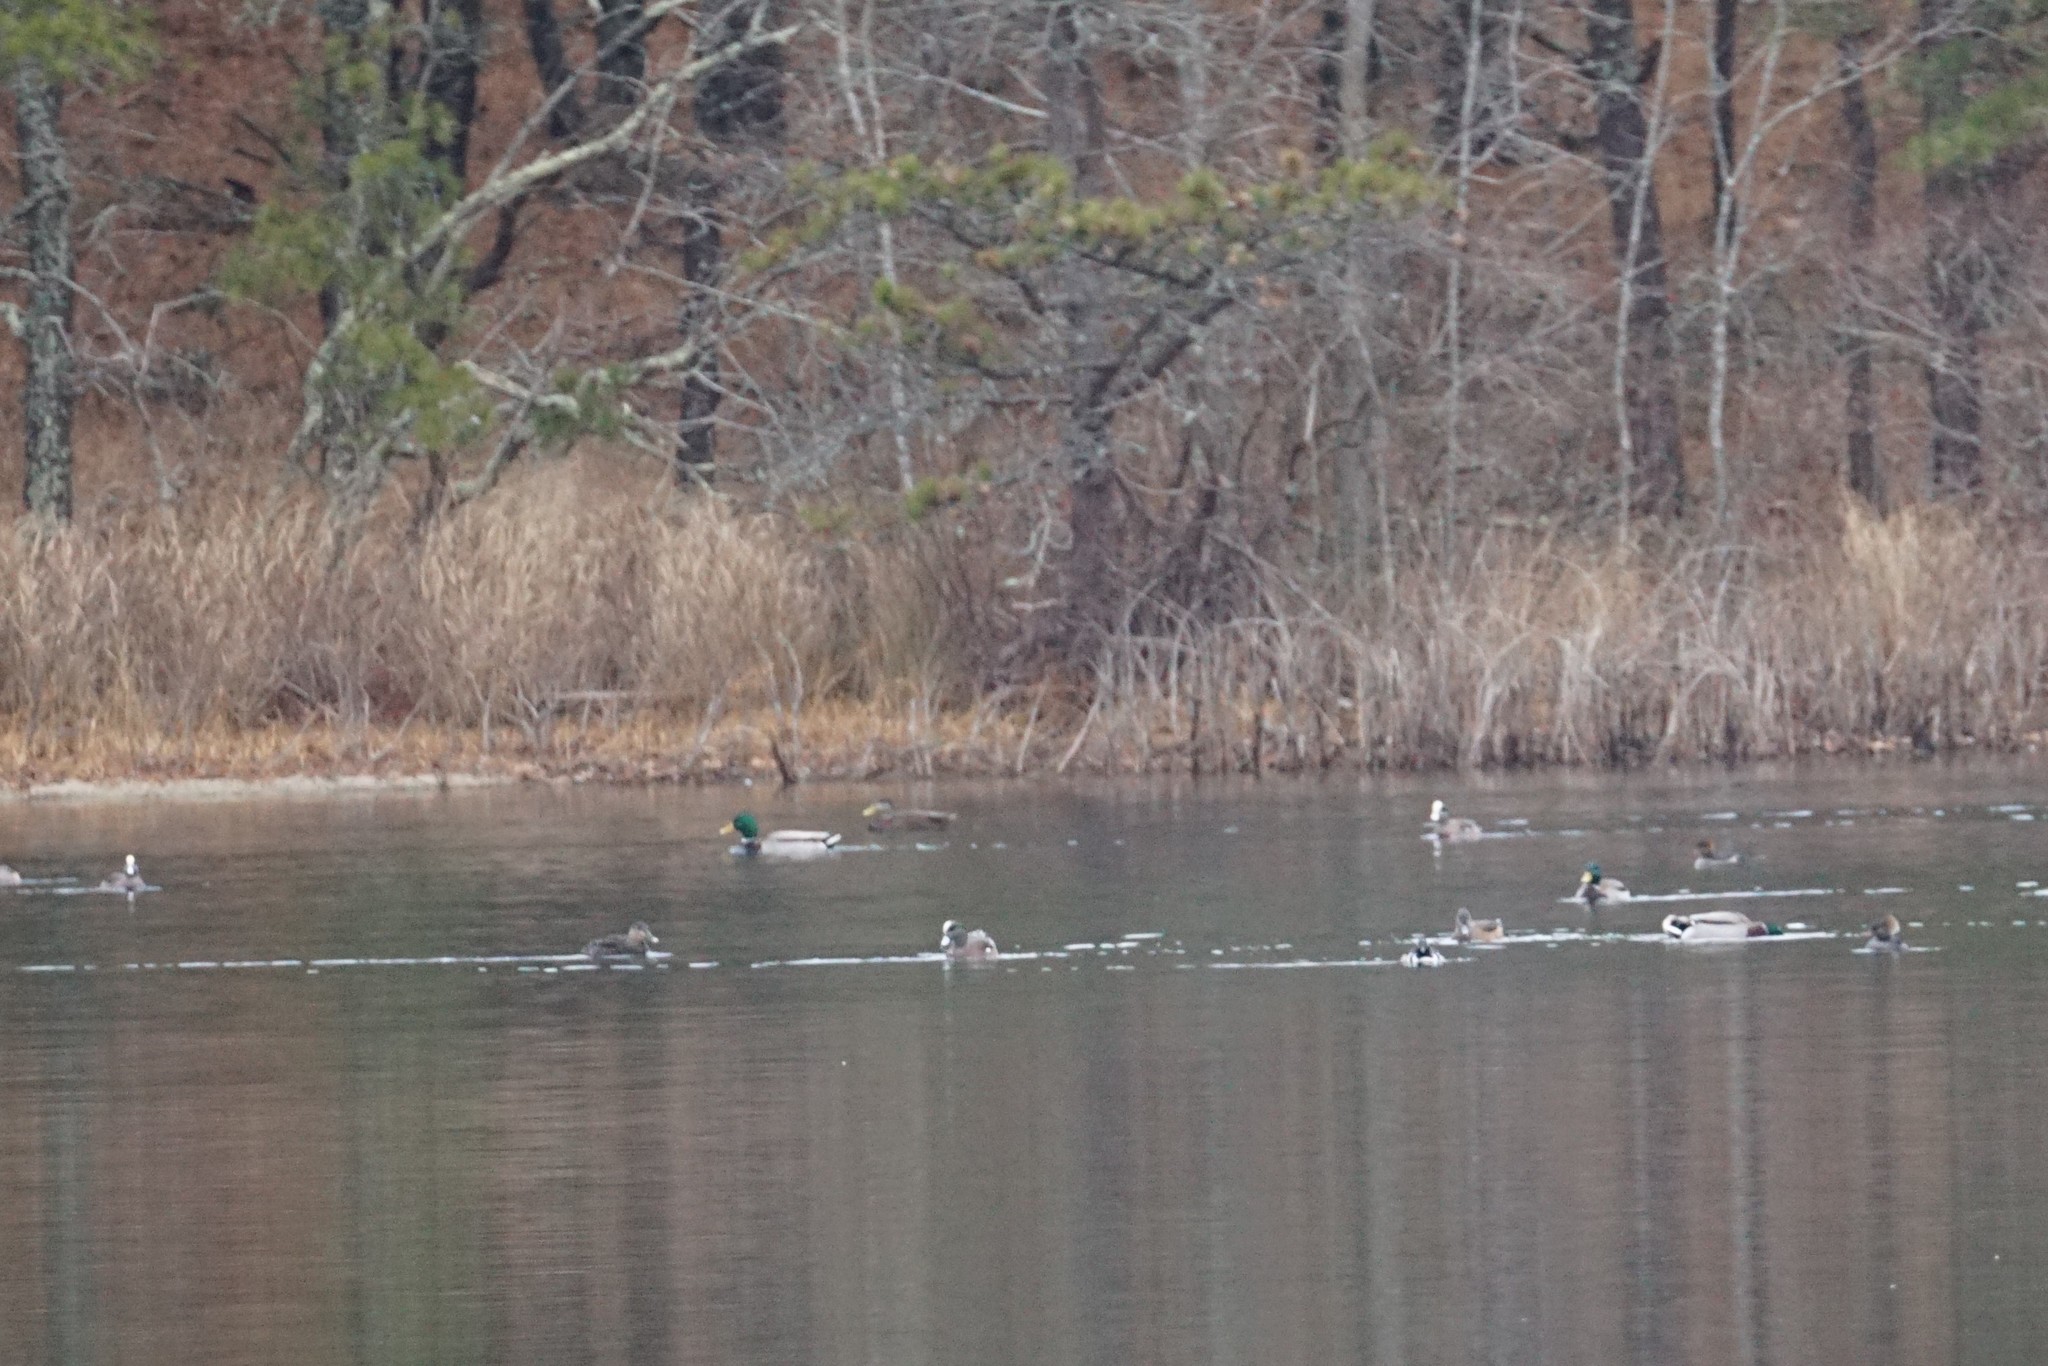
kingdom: Animalia
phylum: Chordata
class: Aves
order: Anseriformes
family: Anatidae
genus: Mareca
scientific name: Mareca americana
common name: American wigeon
